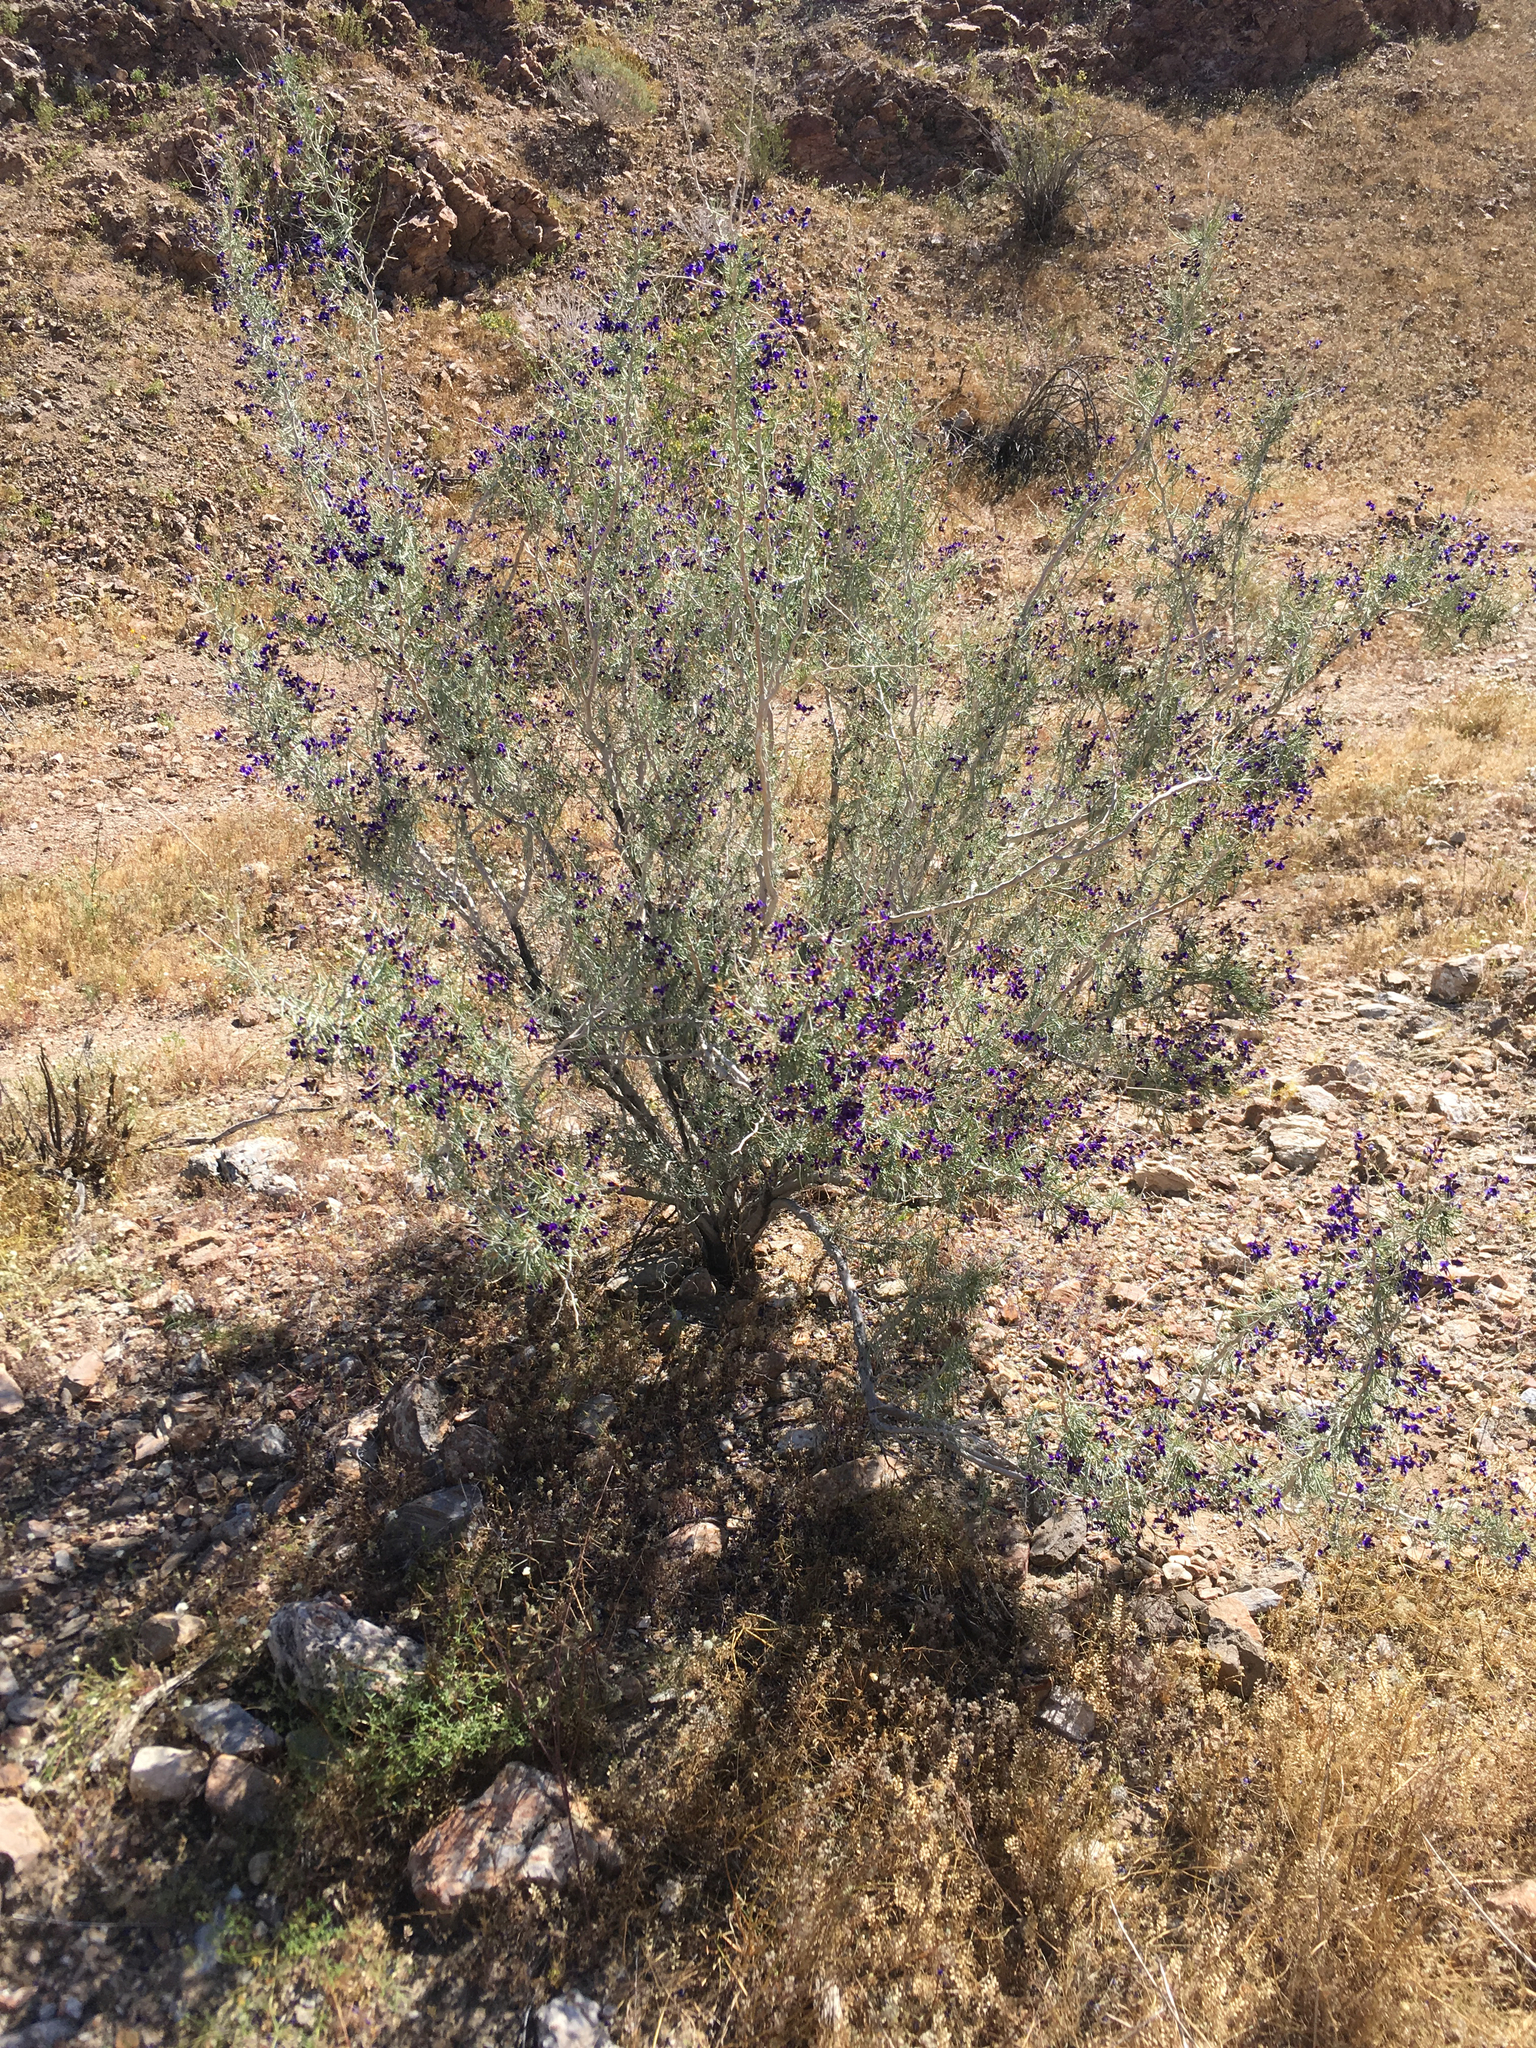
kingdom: Plantae
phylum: Tracheophyta
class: Magnoliopsida
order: Fabales
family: Fabaceae
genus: Psorothamnus
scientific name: Psorothamnus schottii
